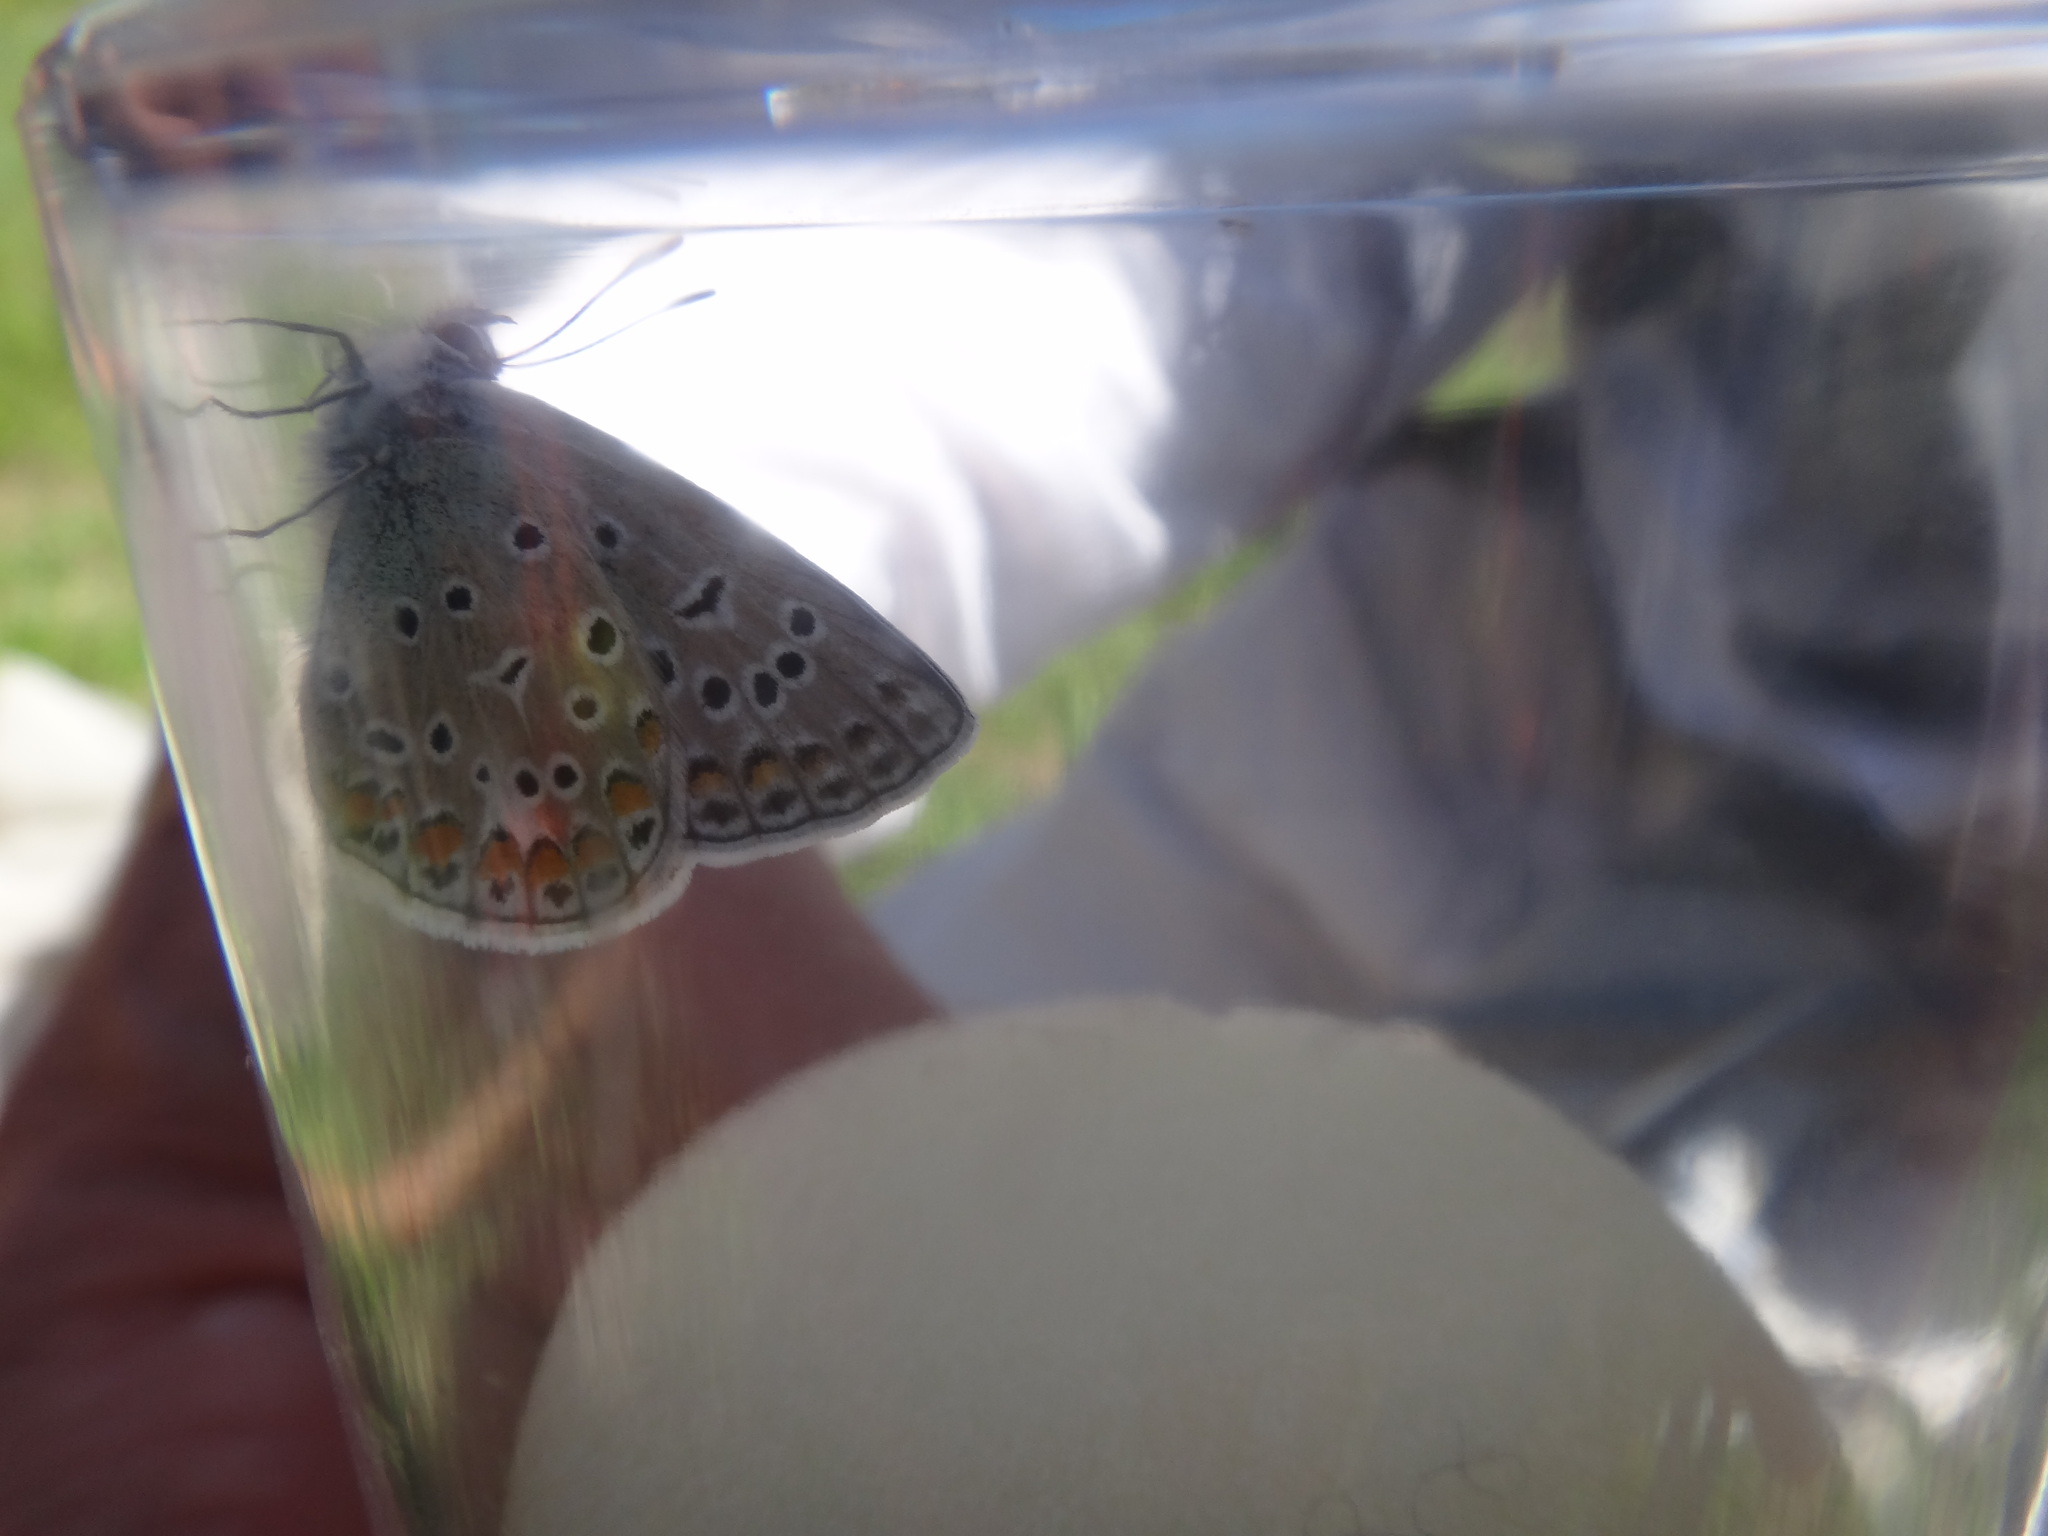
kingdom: Animalia
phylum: Arthropoda
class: Insecta
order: Lepidoptera
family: Lycaenidae
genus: Polyommatus
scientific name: Polyommatus icarus
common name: Common blue
